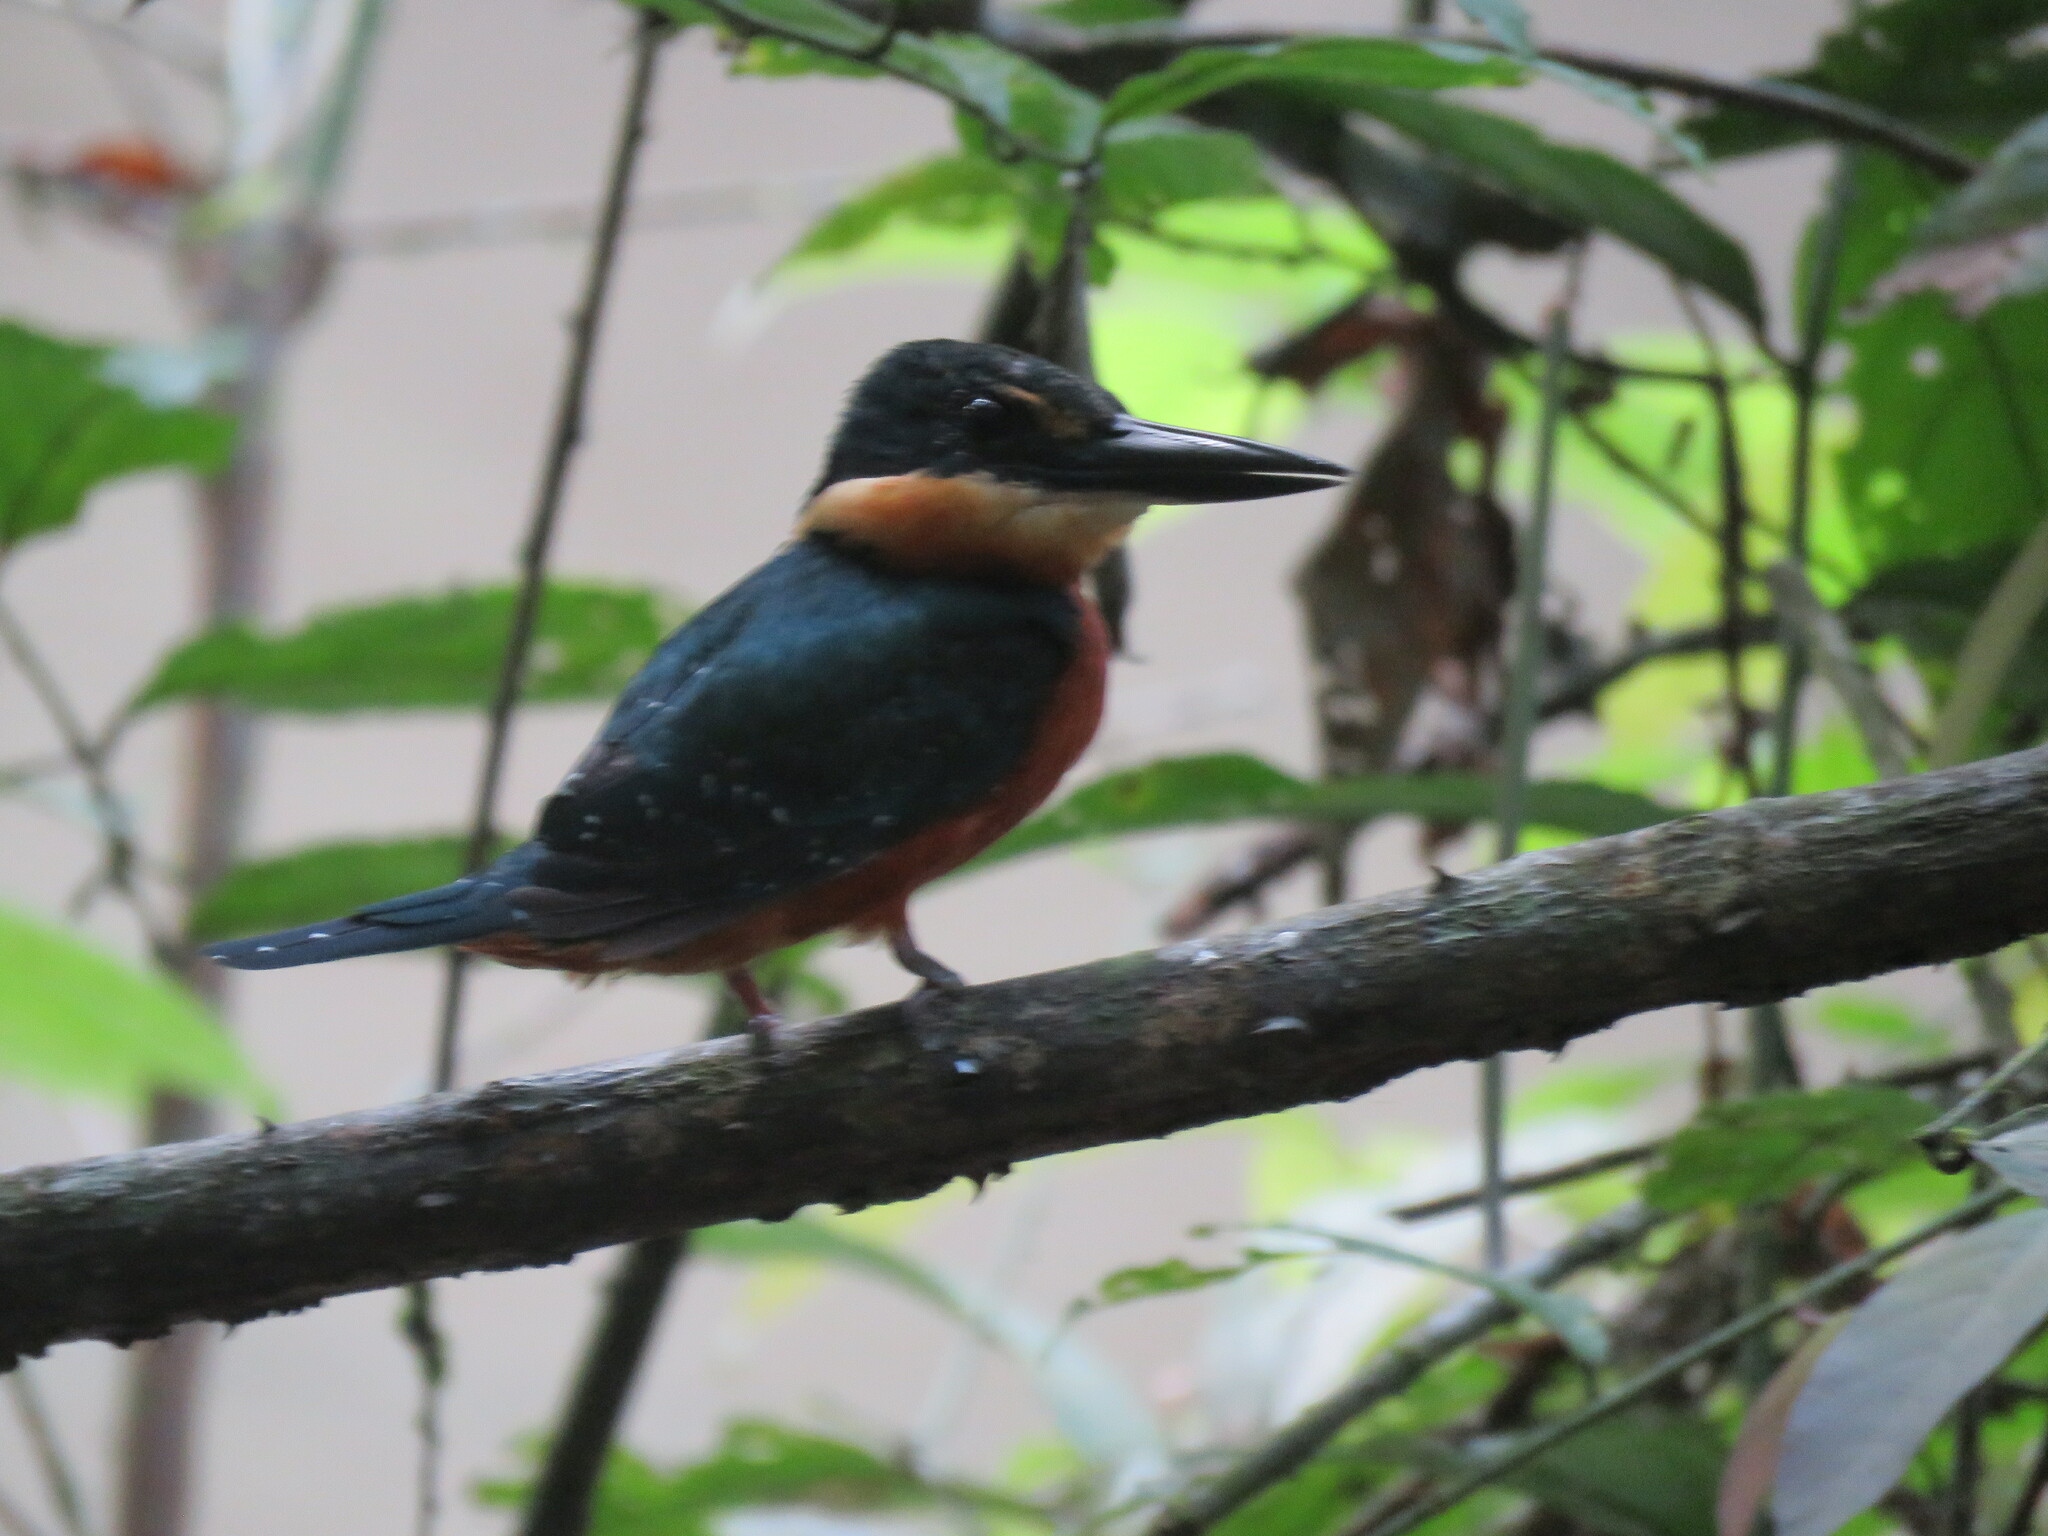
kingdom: Animalia
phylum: Chordata
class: Aves
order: Coraciiformes
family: Alcedinidae
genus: Chloroceryle
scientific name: Chloroceryle inda
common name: Green-and-rufous kingfisher
